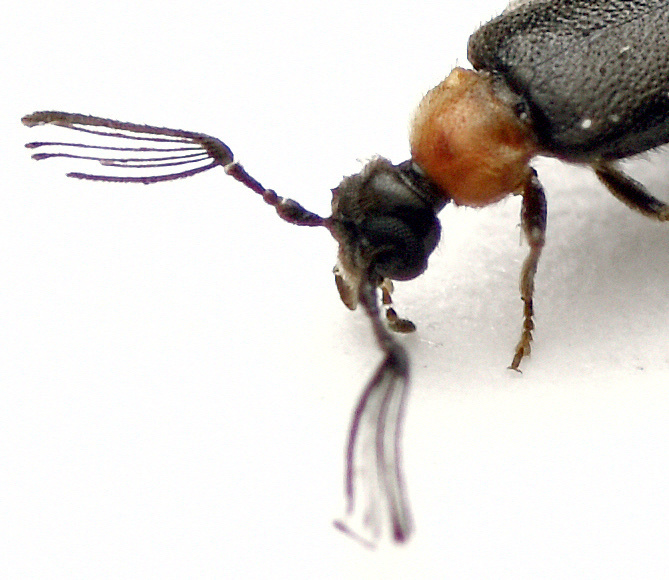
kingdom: Animalia
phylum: Arthropoda
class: Insecta
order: Coleoptera
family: Scraptiidae
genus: Xylophilostenus
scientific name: Xylophilostenus
